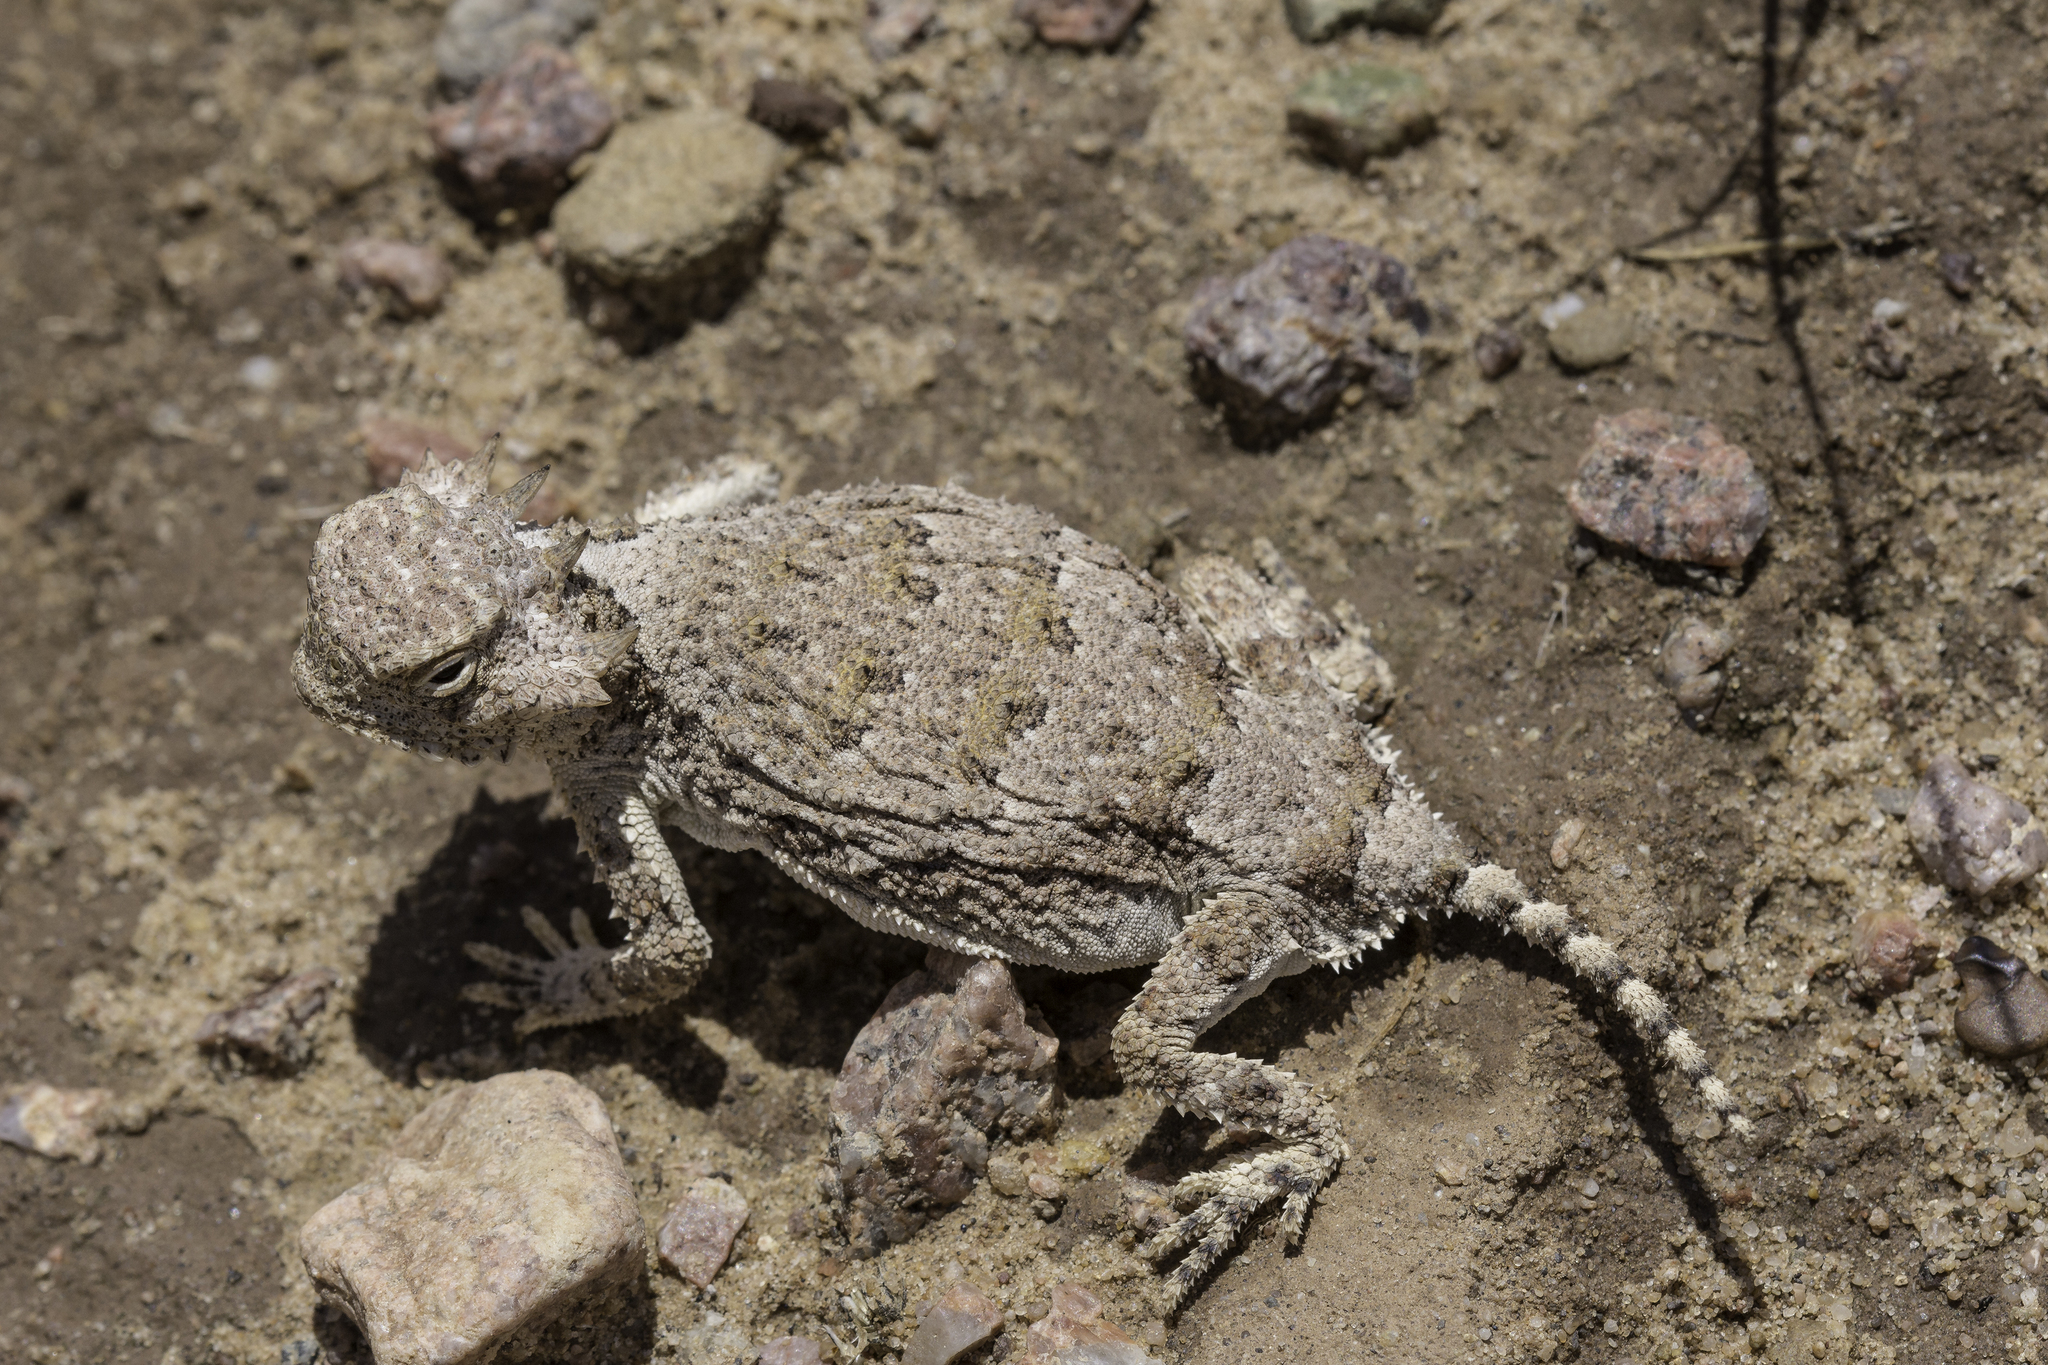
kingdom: Animalia
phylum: Chordata
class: Squamata
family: Phrynosomatidae
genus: Phrynosoma
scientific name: Phrynosoma modestum
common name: Roundtail horned lizard
